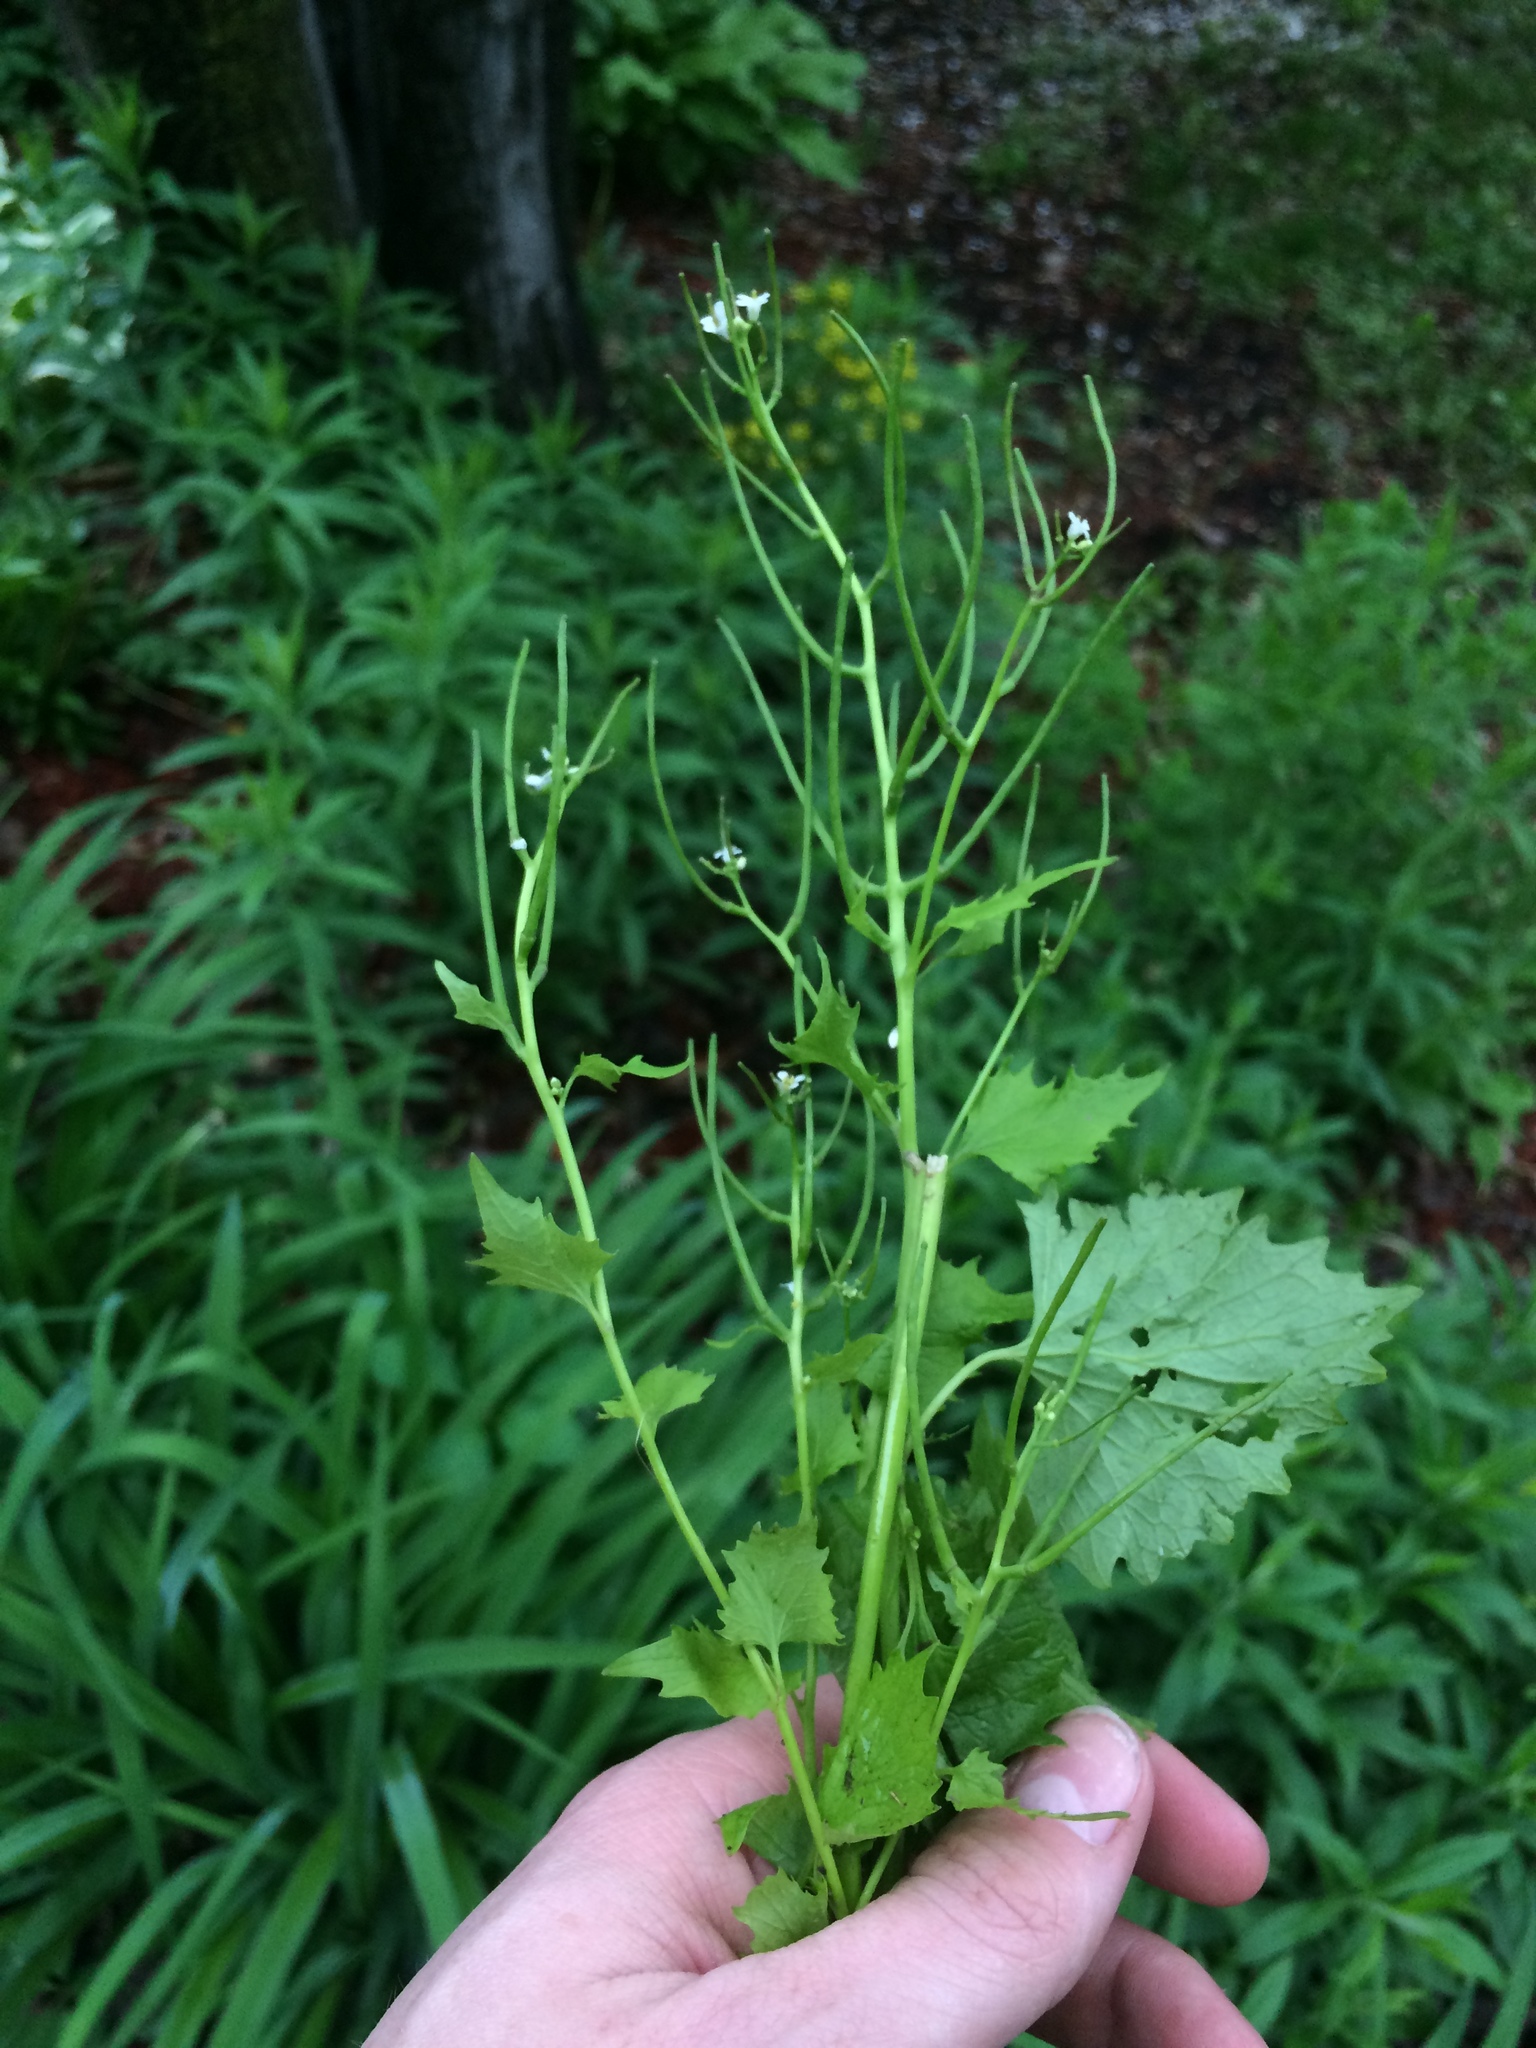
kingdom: Plantae
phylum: Tracheophyta
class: Magnoliopsida
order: Brassicales
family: Brassicaceae
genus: Alliaria
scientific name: Alliaria petiolata
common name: Garlic mustard
